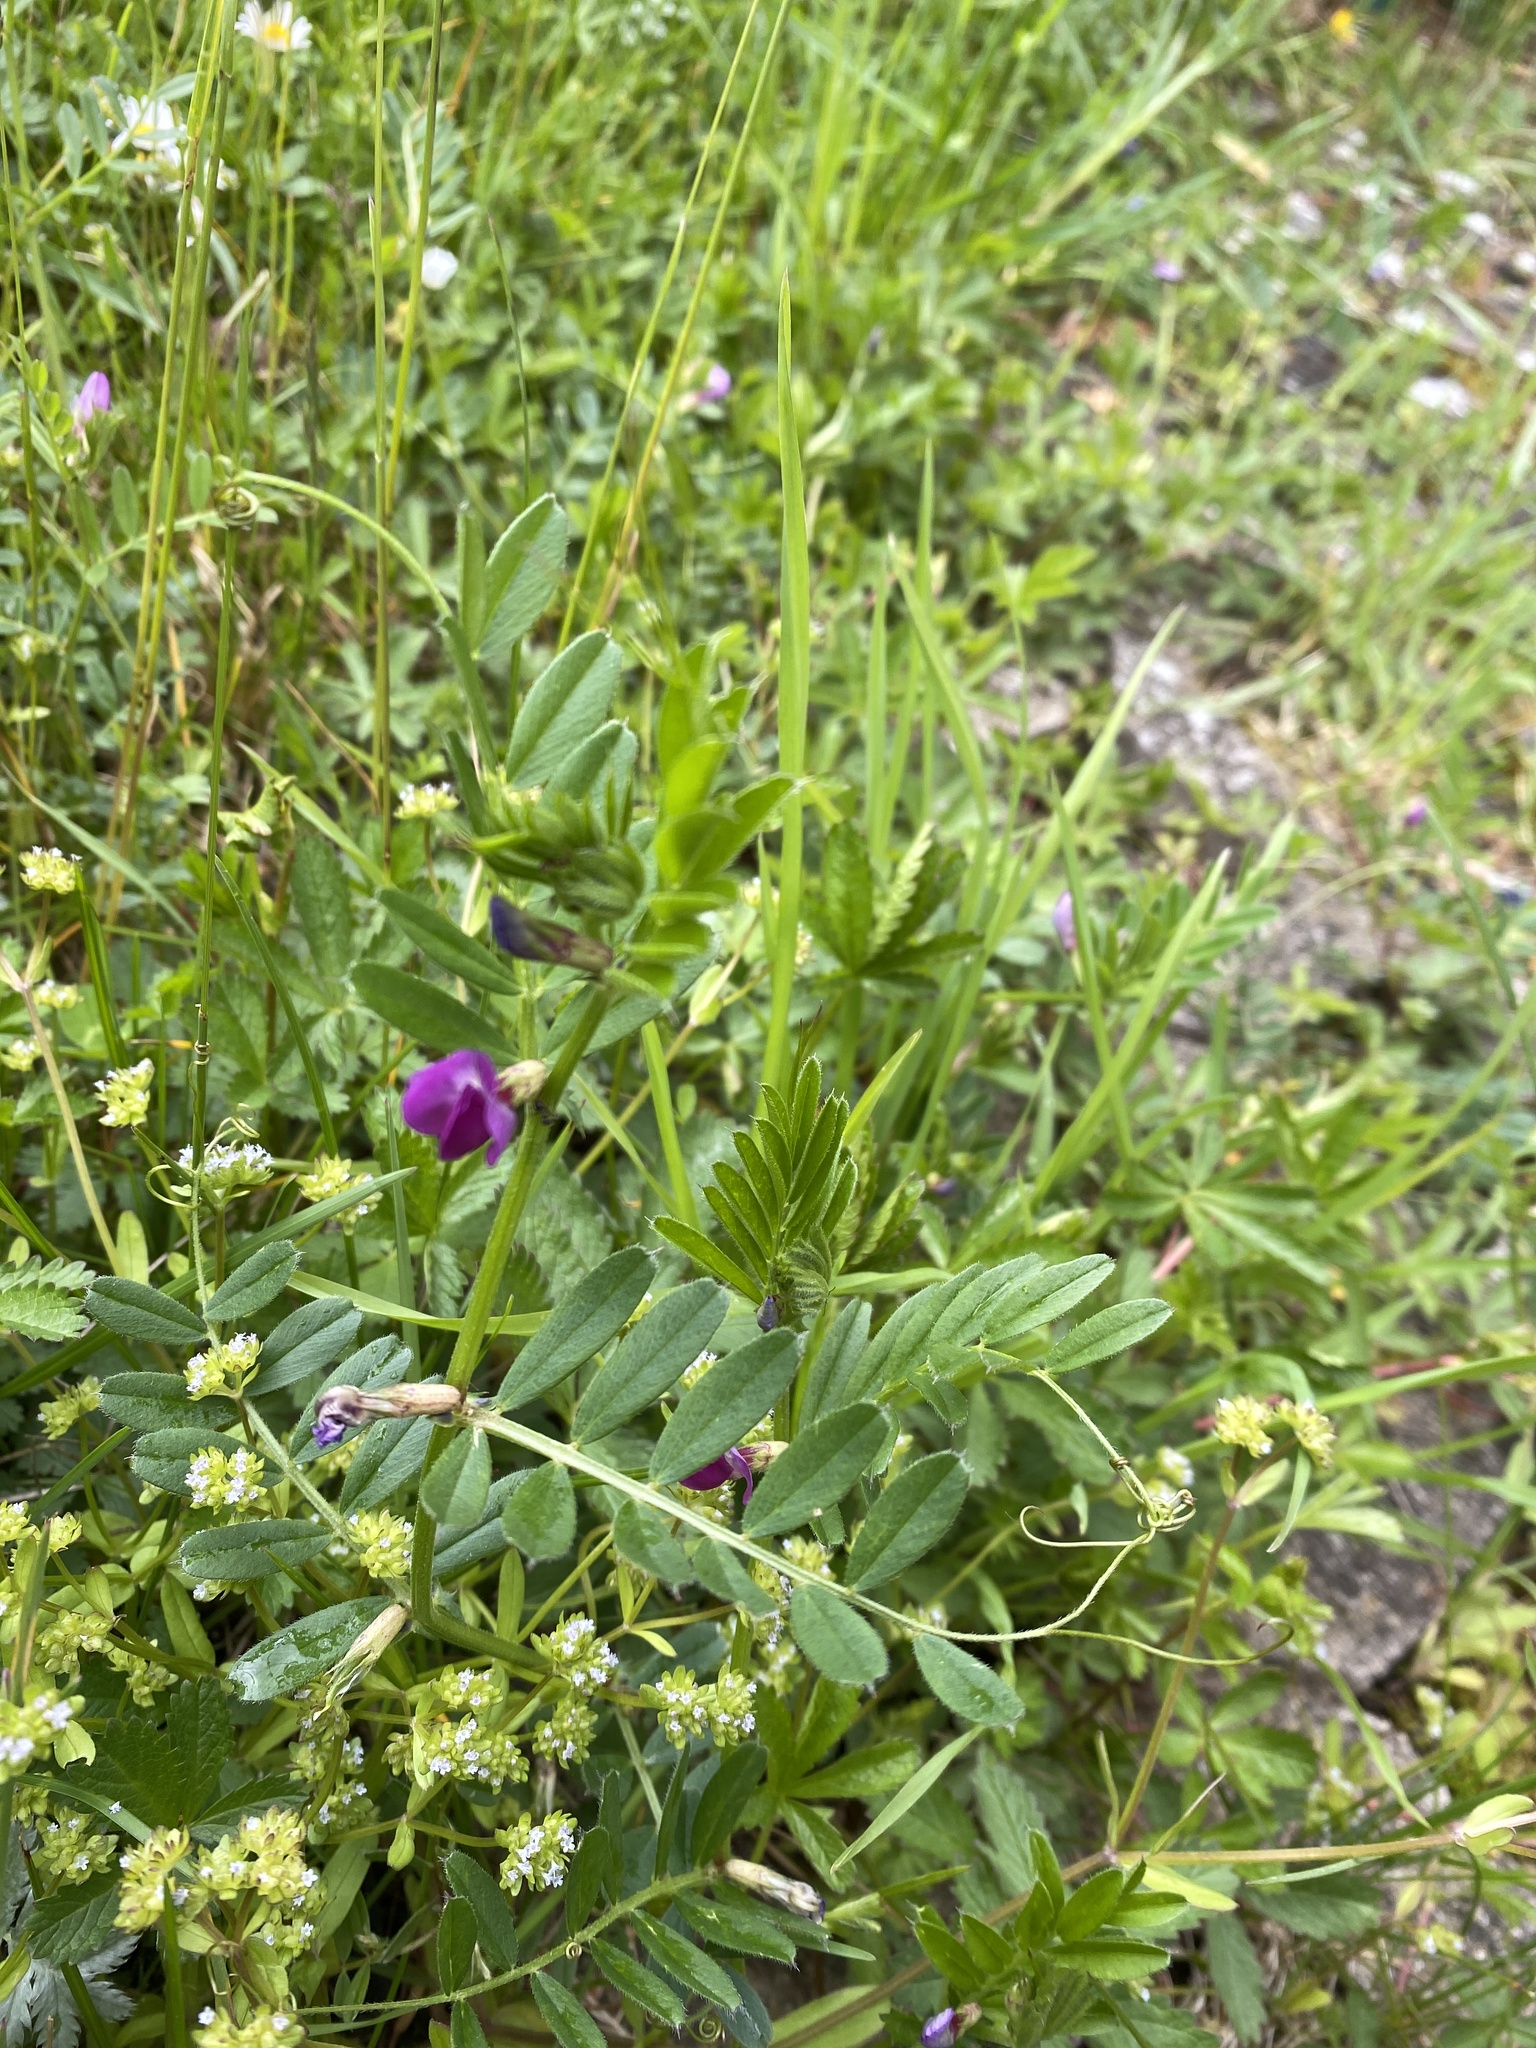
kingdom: Plantae
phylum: Tracheophyta
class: Magnoliopsida
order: Fabales
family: Fabaceae
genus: Vicia
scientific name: Vicia sativa
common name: Garden vetch
